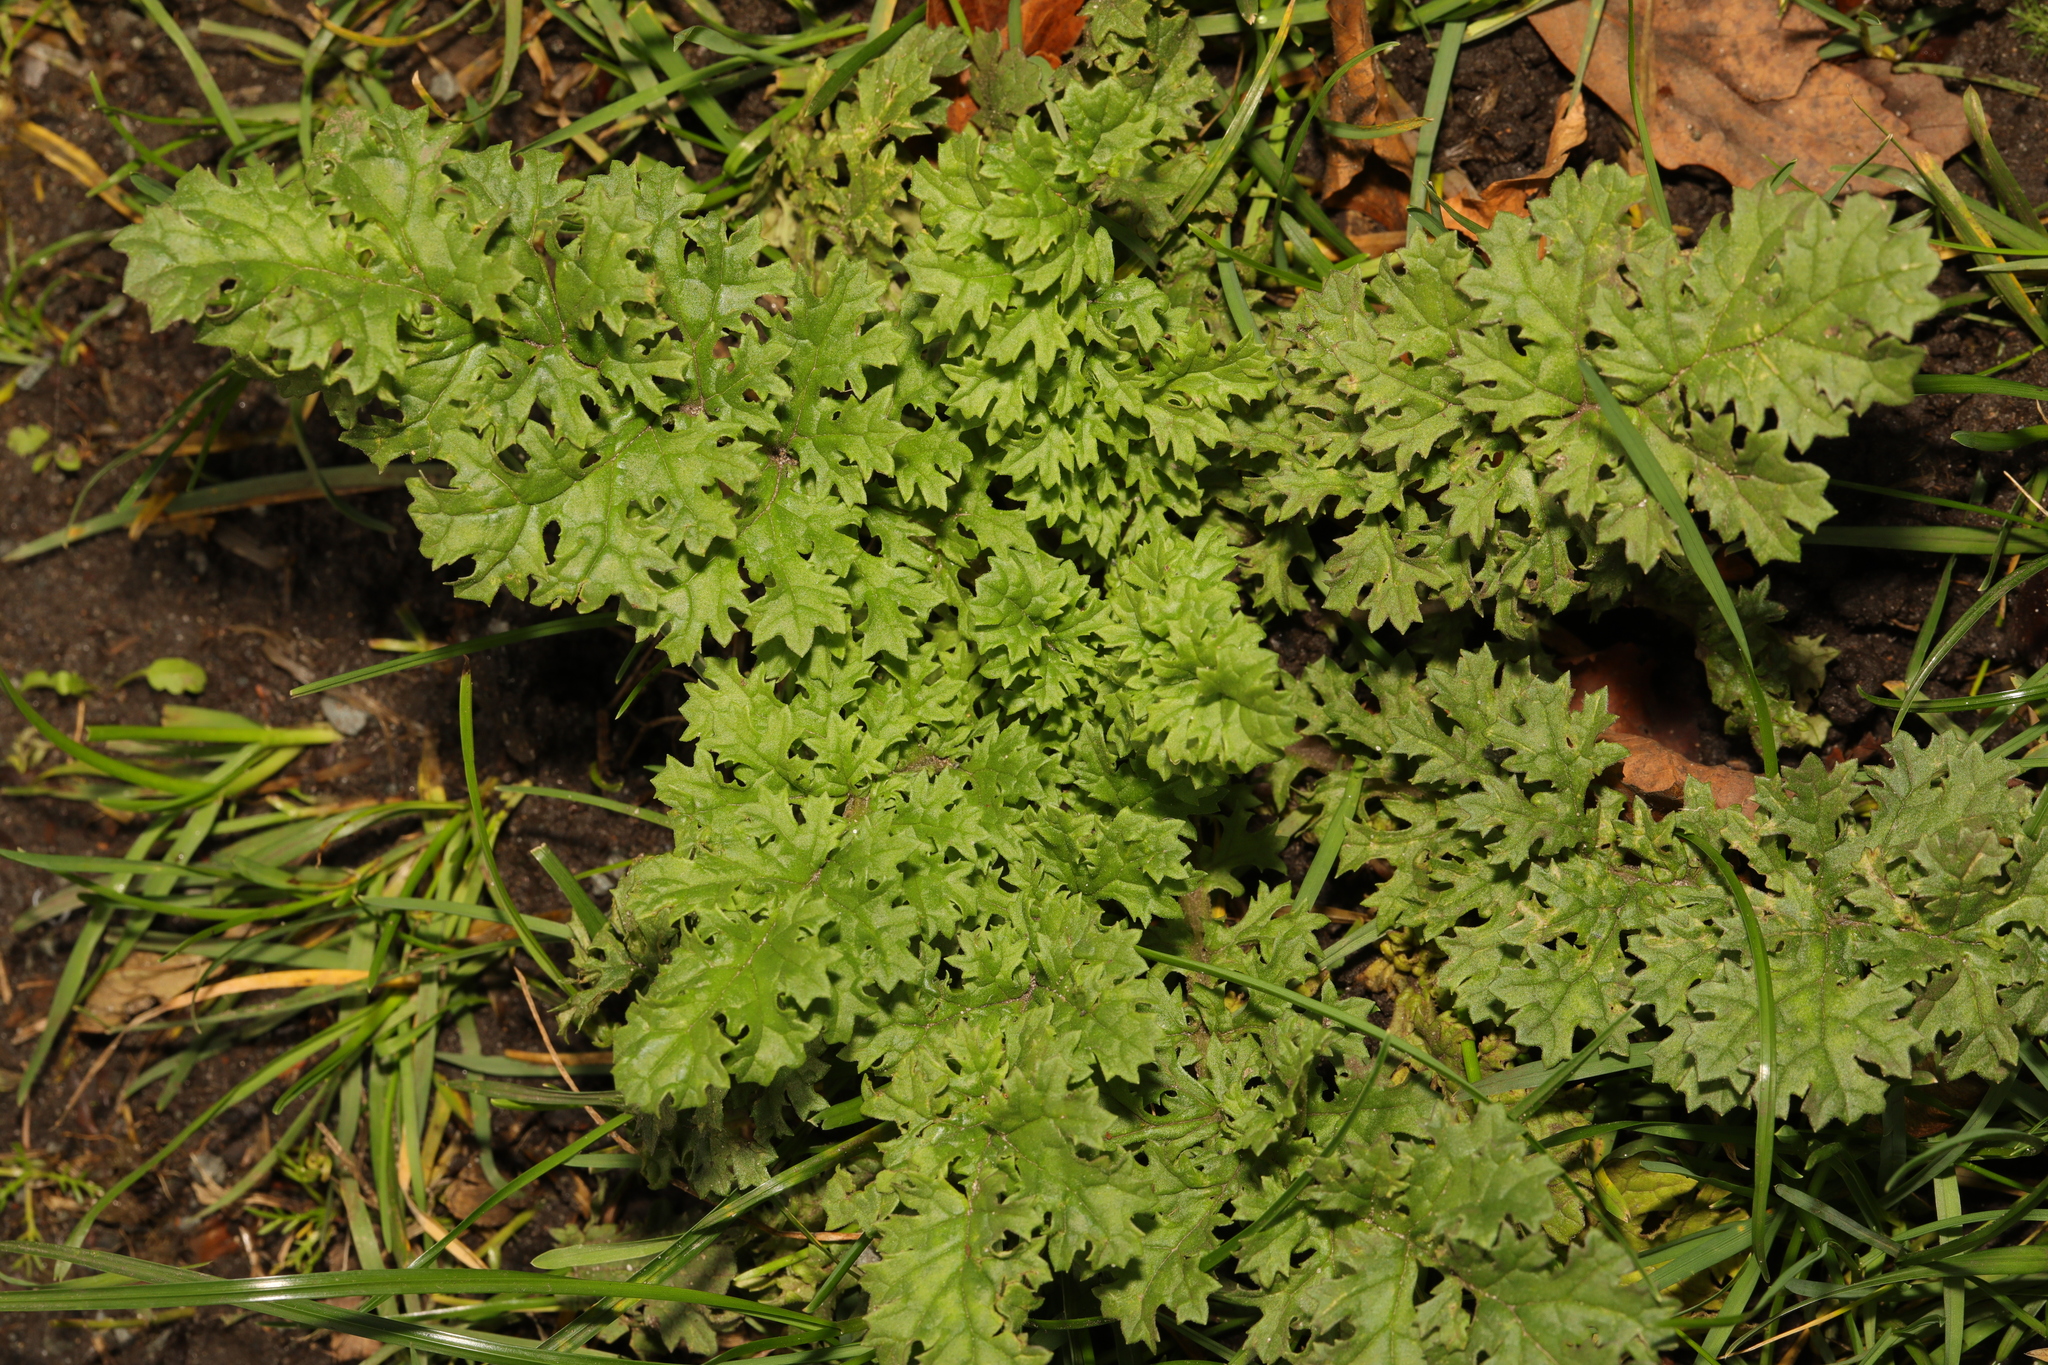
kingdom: Plantae
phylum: Tracheophyta
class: Magnoliopsida
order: Asterales
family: Asteraceae
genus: Jacobaea
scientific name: Jacobaea vulgaris
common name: Stinking willie
